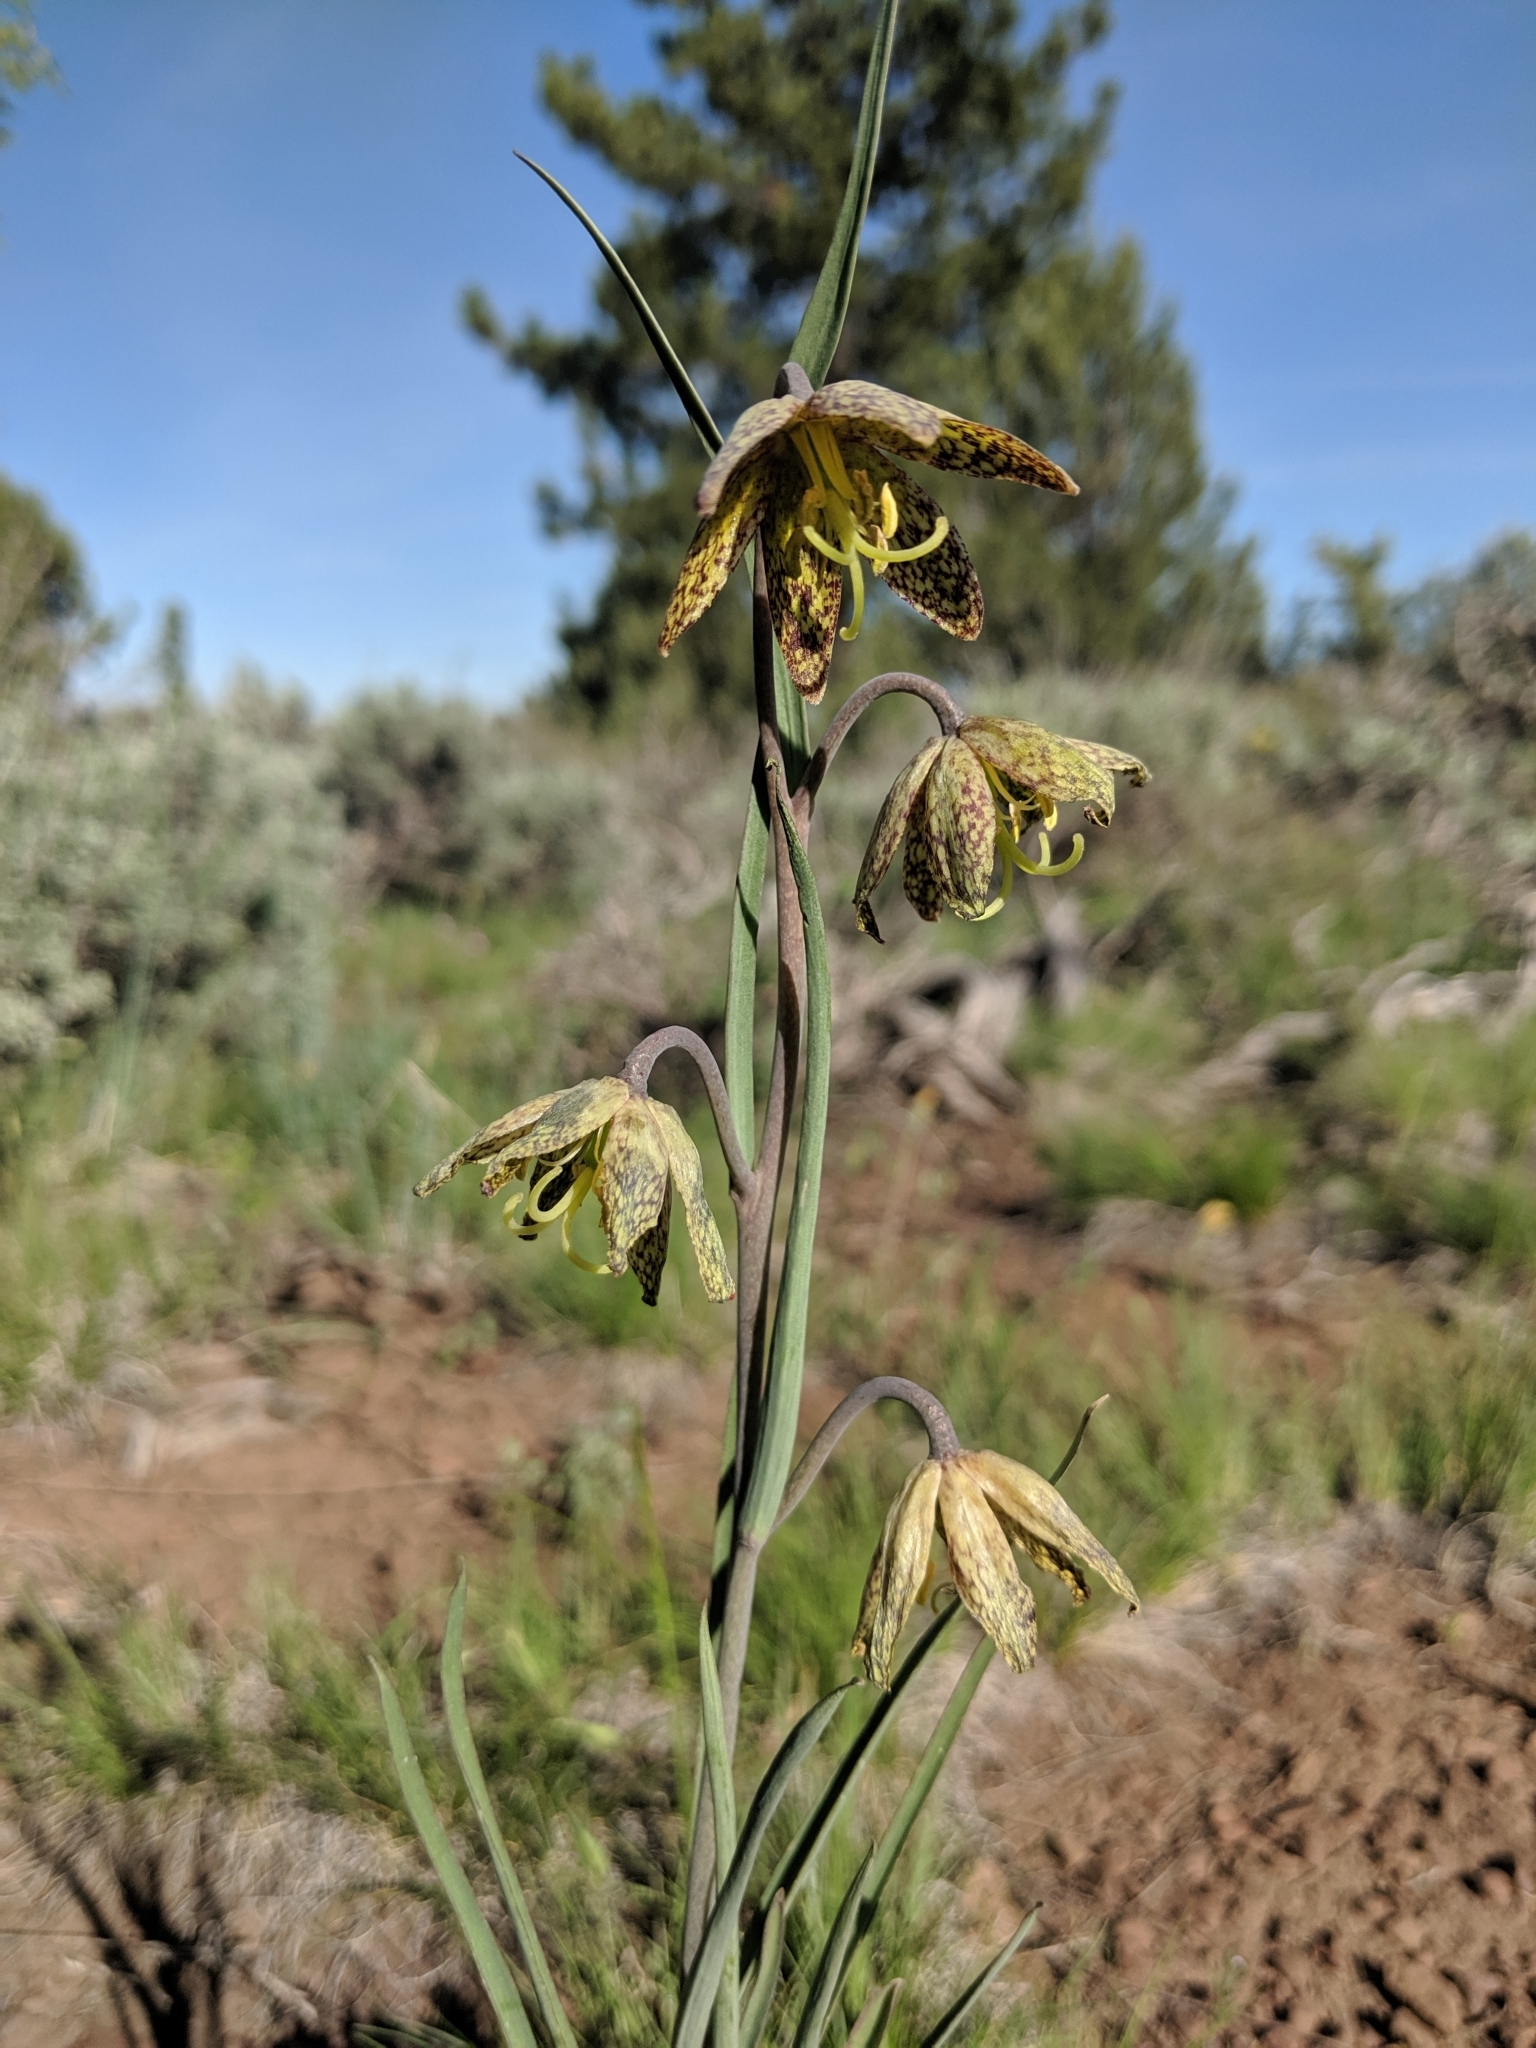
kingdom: Plantae
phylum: Tracheophyta
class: Liliopsida
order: Liliales
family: Liliaceae
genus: Fritillaria
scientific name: Fritillaria atropurpurea
